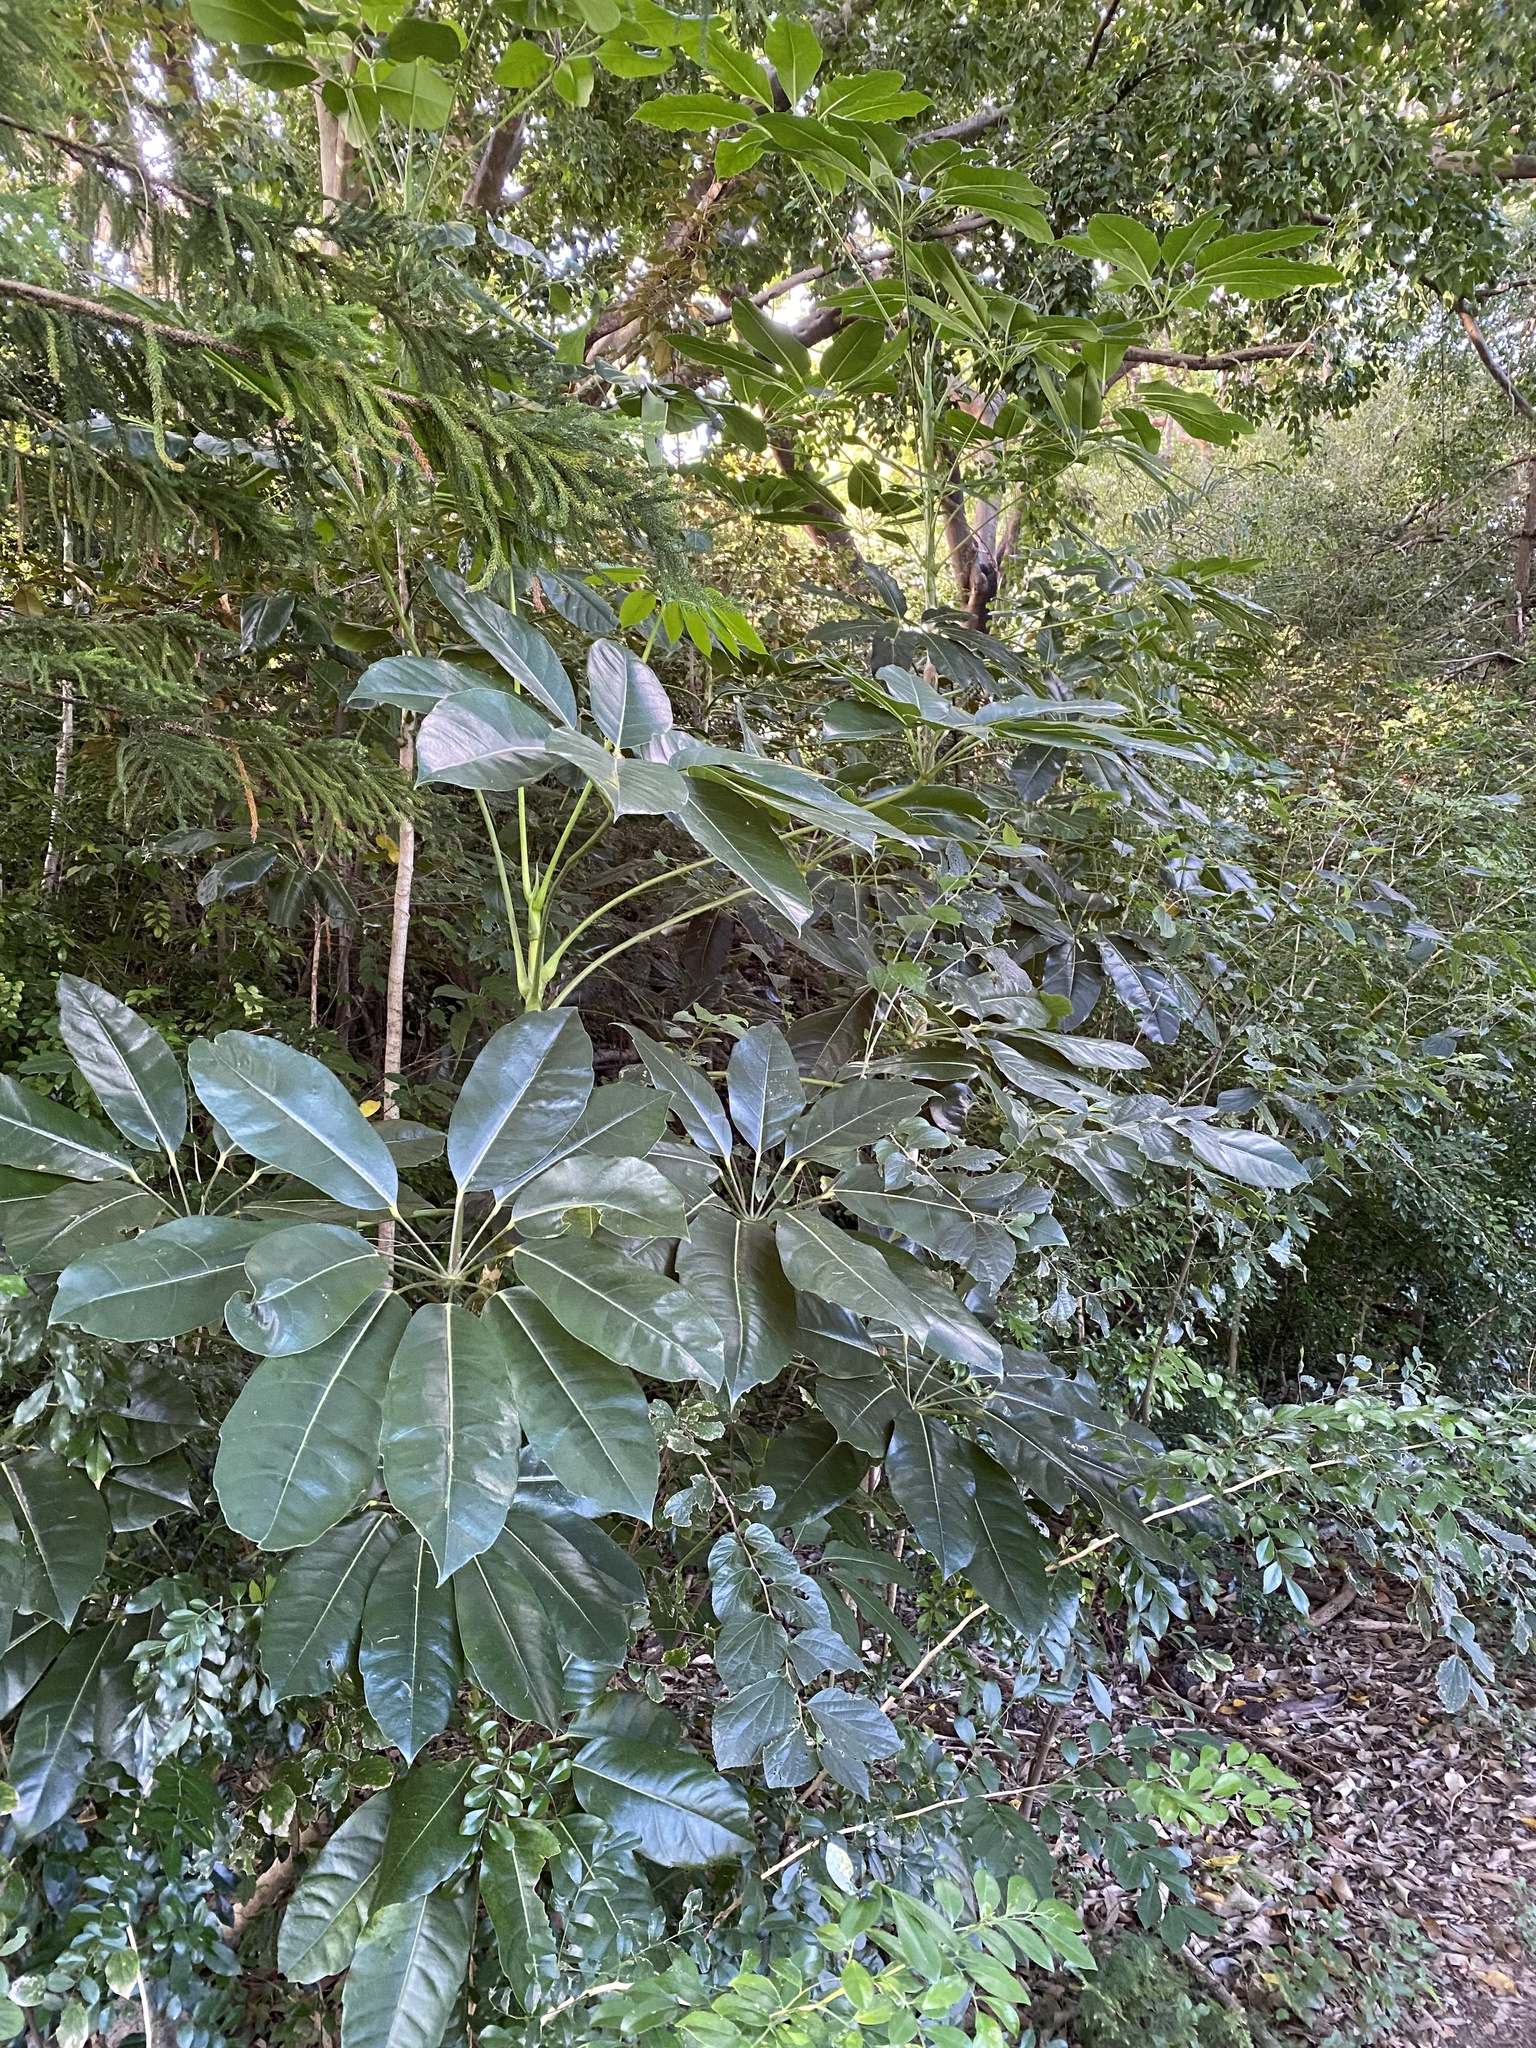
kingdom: Plantae
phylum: Tracheophyta
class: Magnoliopsida
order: Apiales
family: Araliaceae
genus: Heptapleurum
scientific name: Heptapleurum actinophyllum
